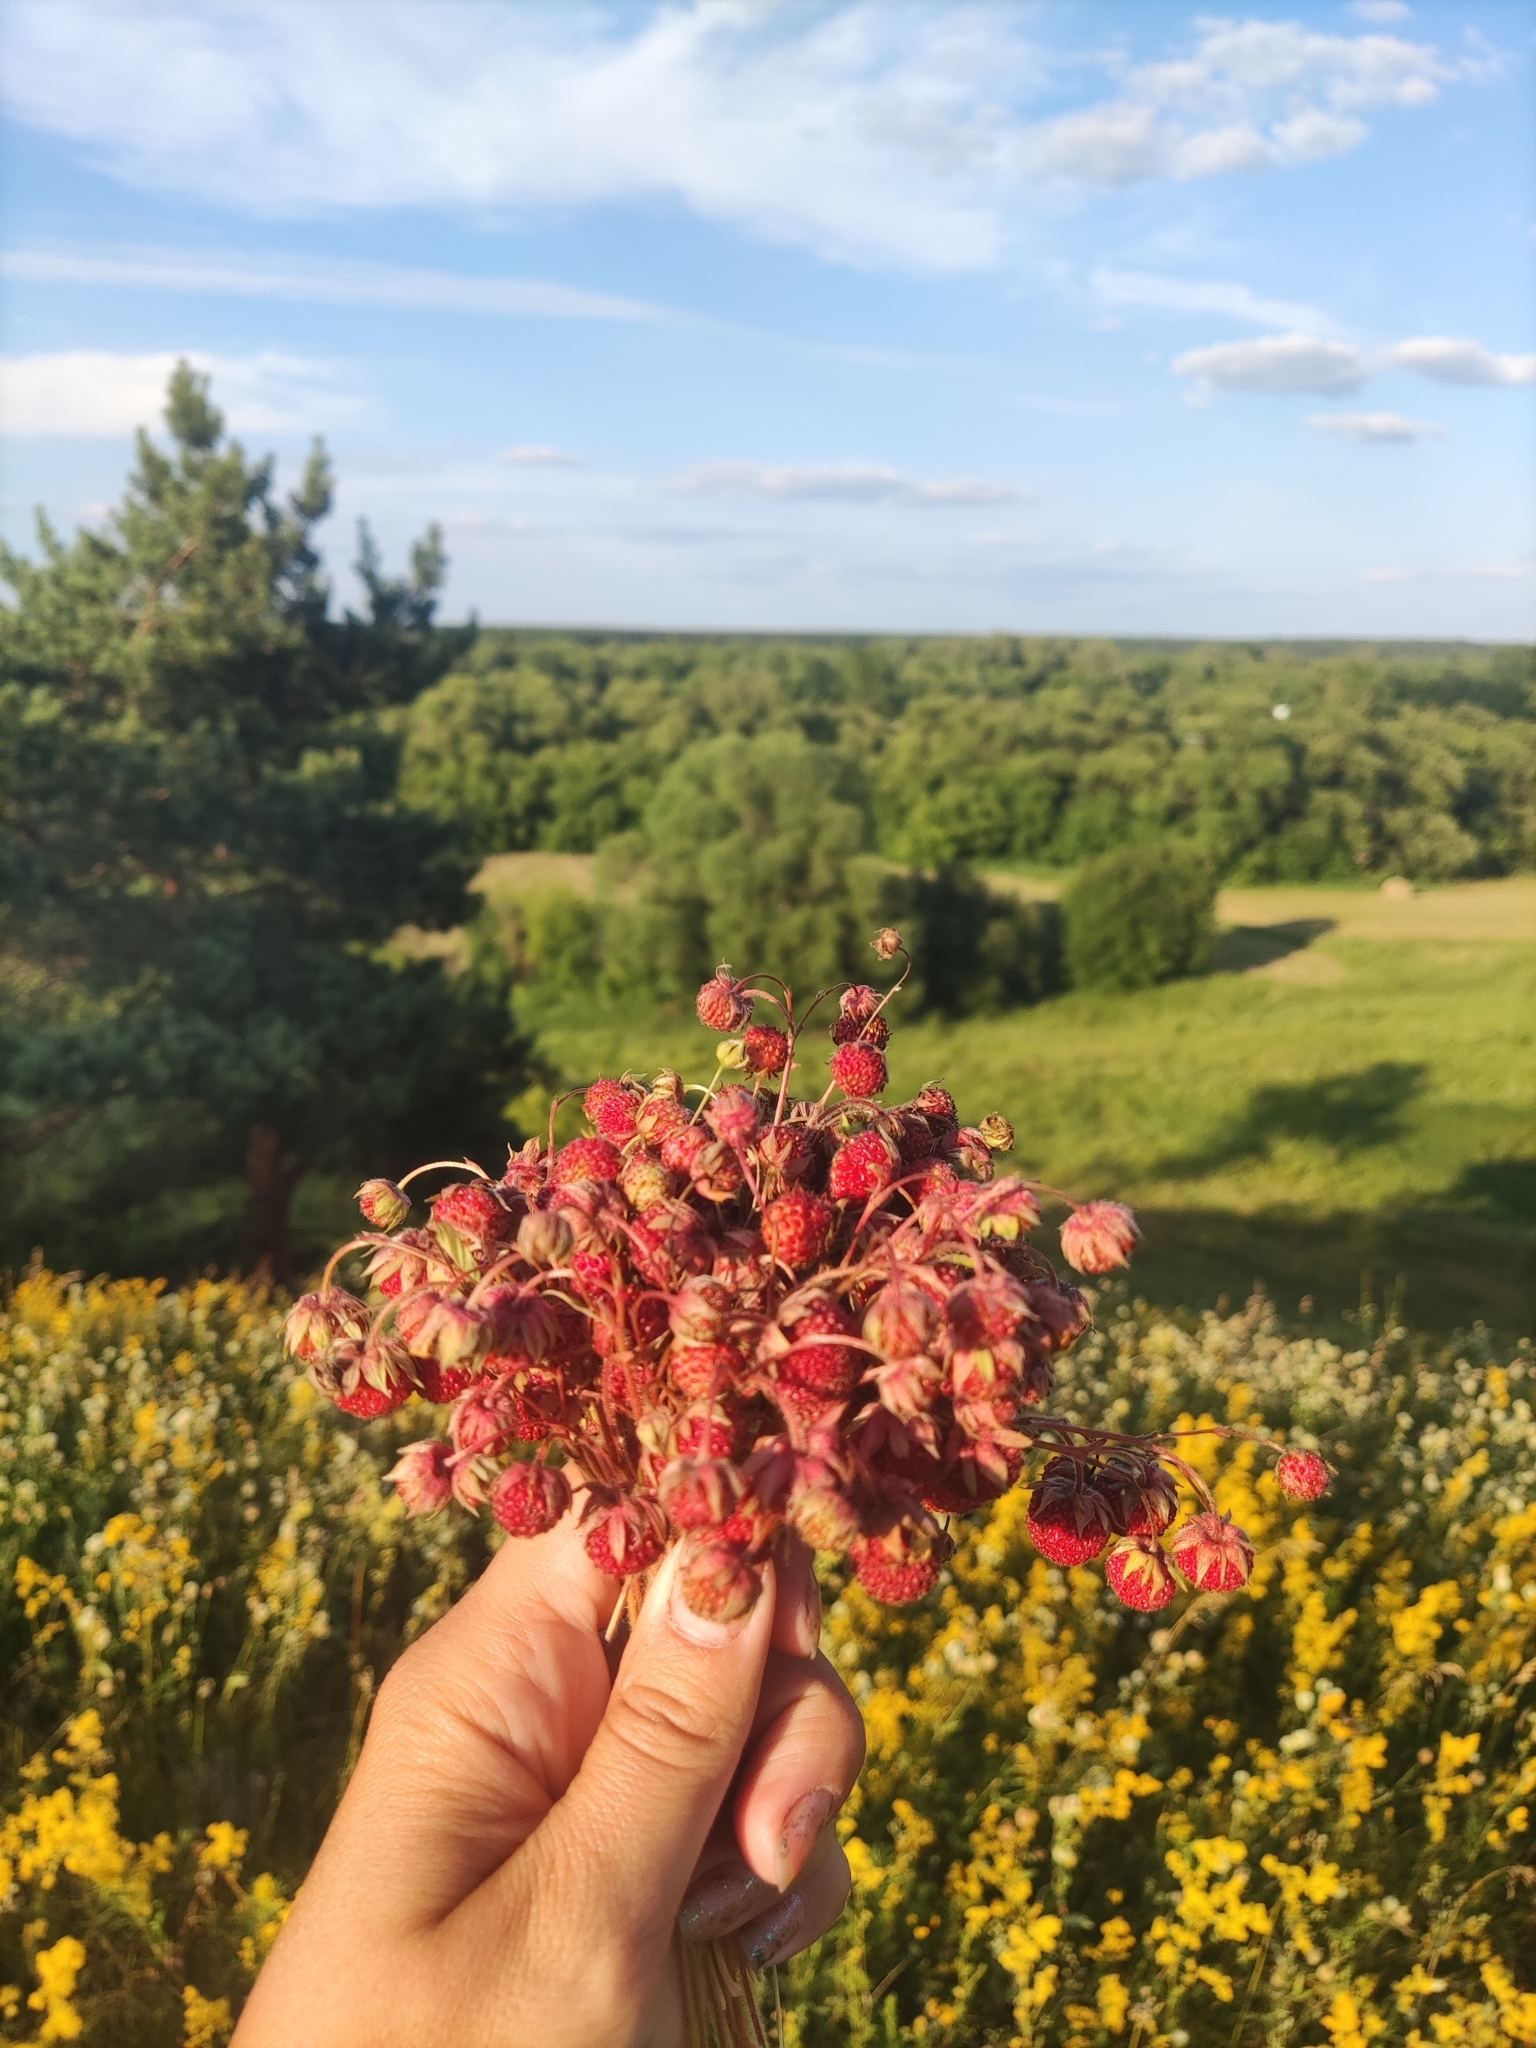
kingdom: Plantae
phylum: Tracheophyta
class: Magnoliopsida
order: Rosales
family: Rosaceae
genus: Fragaria
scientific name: Fragaria viridis
